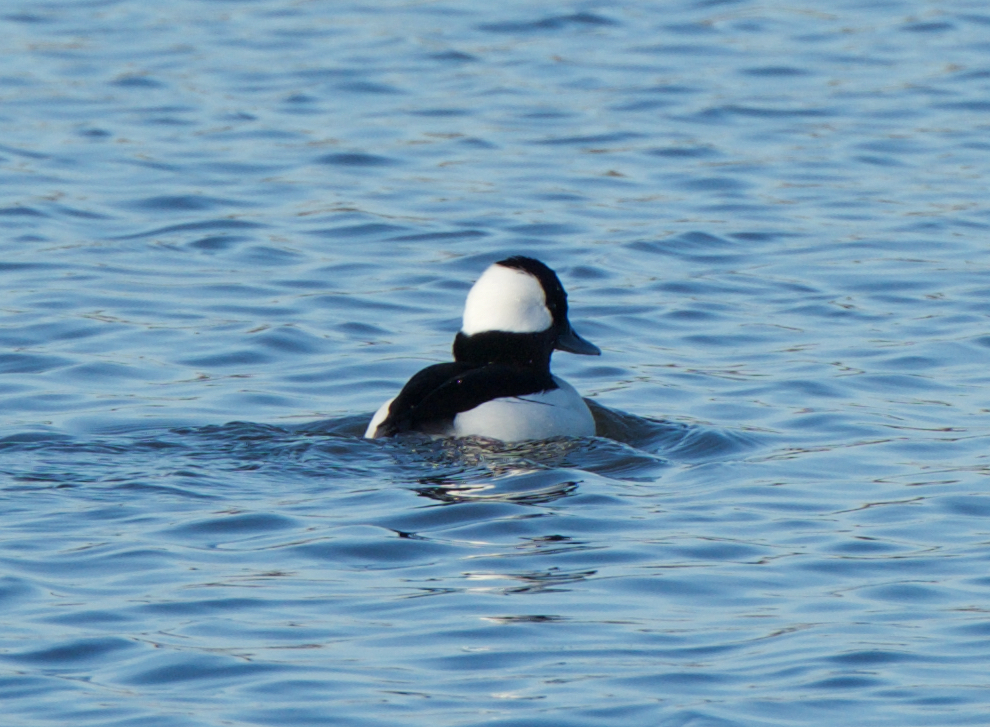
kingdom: Animalia
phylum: Chordata
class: Aves
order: Anseriformes
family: Anatidae
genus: Bucephala
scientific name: Bucephala albeola
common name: Bufflehead
